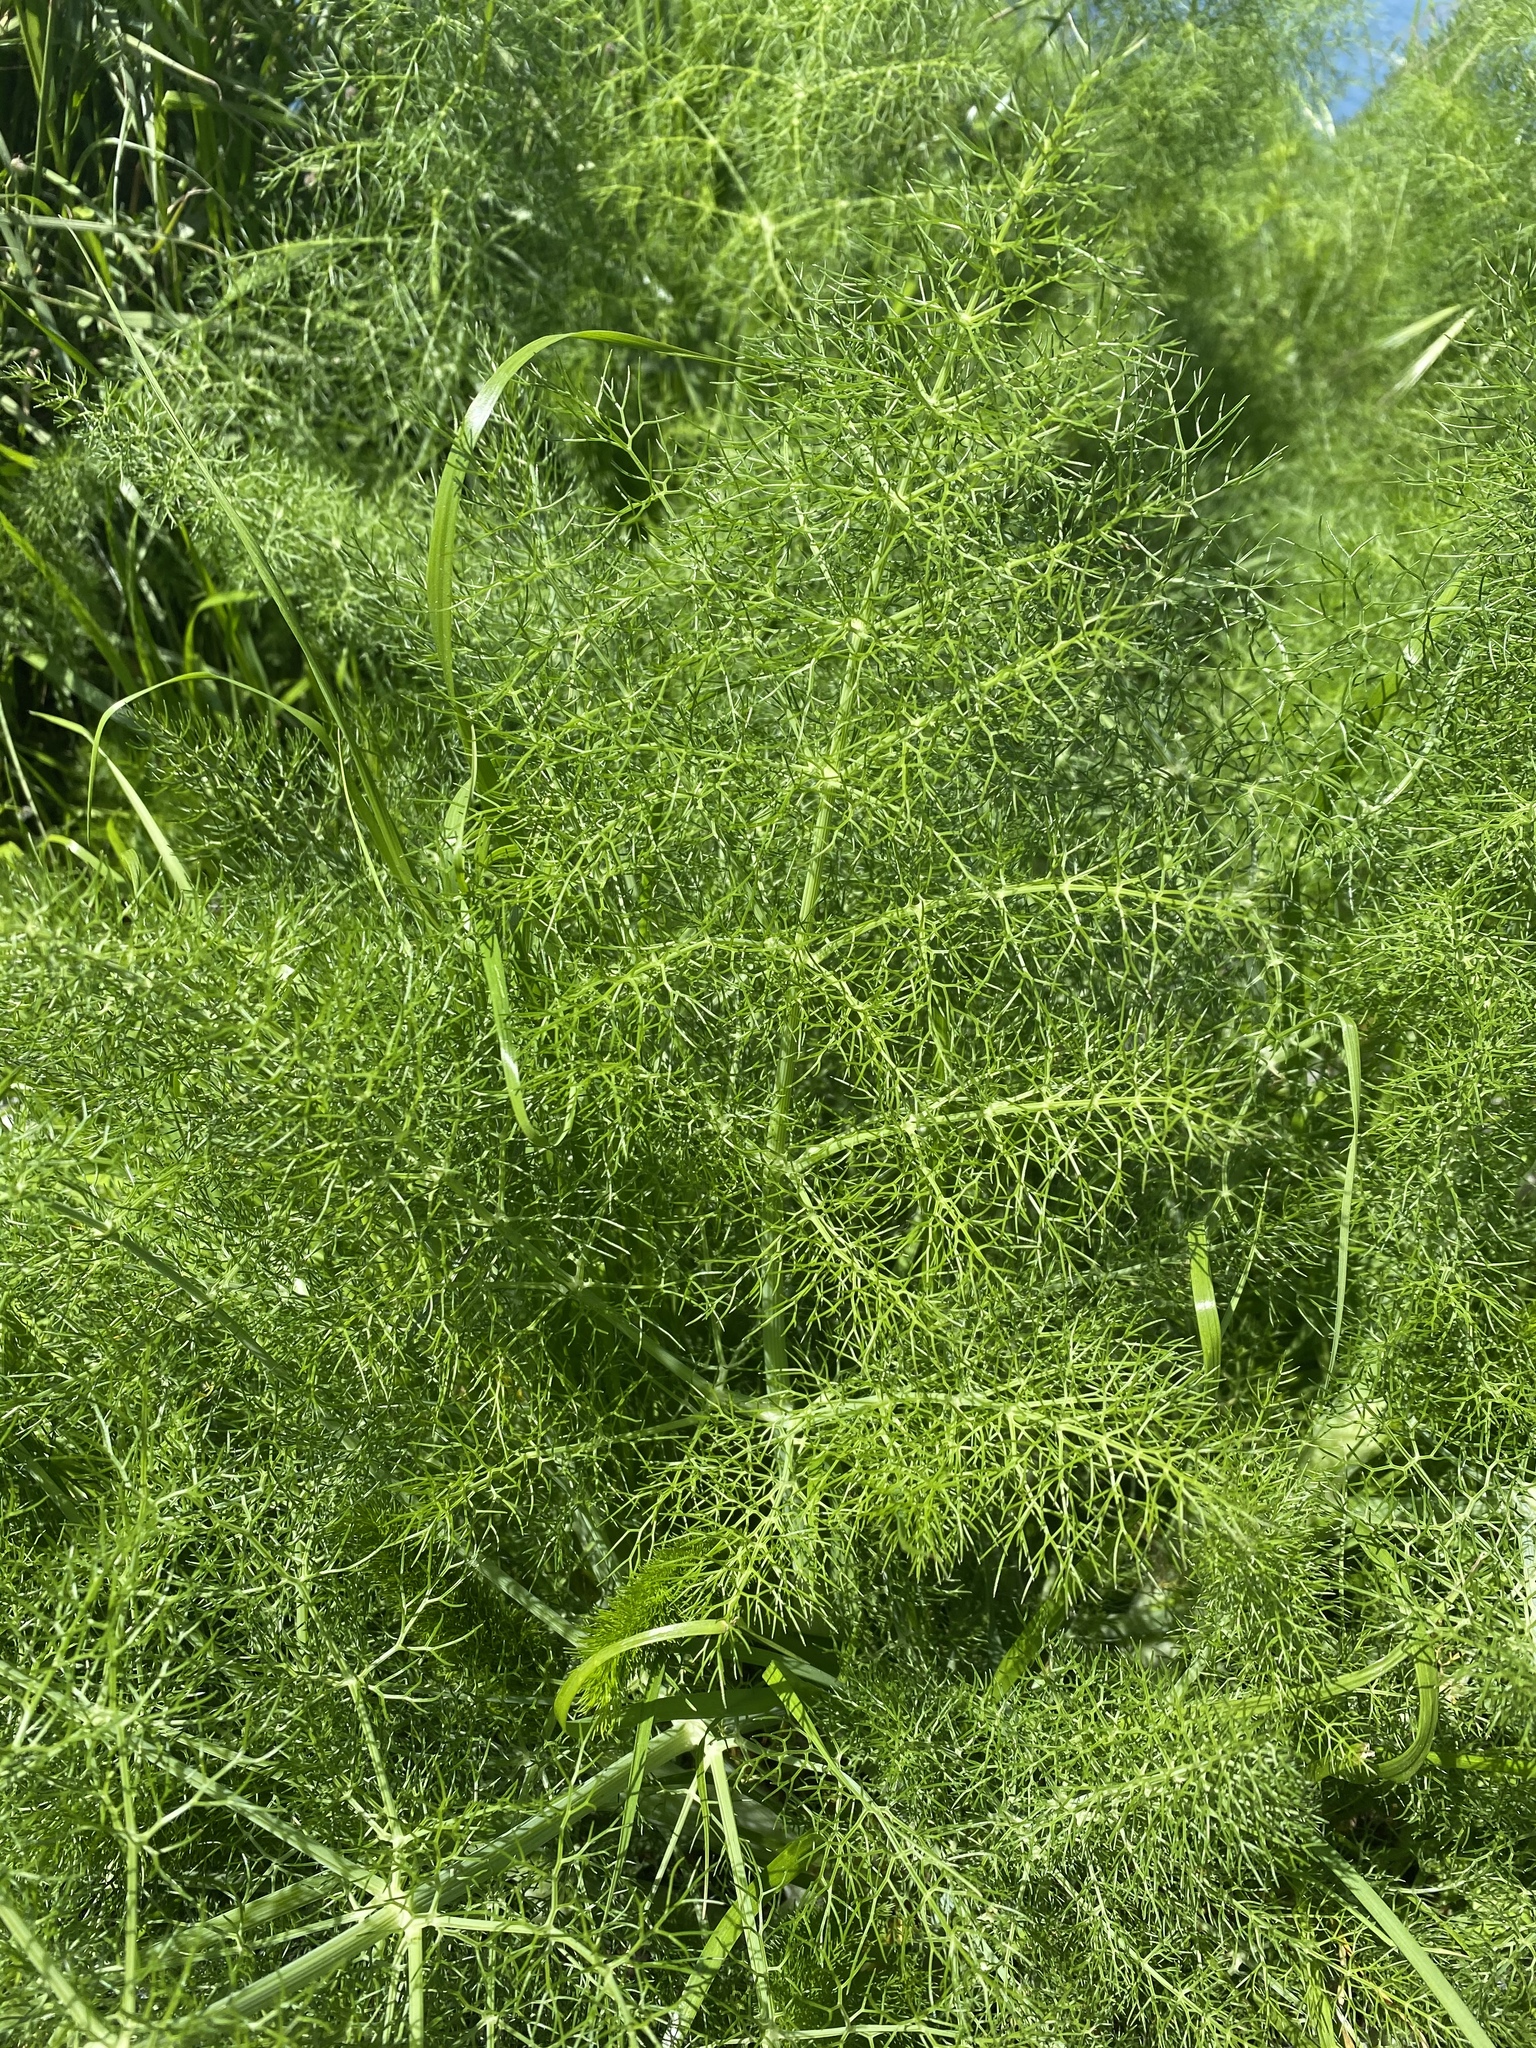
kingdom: Plantae
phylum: Tracheophyta
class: Magnoliopsida
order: Apiales
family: Apiaceae
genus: Foeniculum
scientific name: Foeniculum vulgare
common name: Fennel
